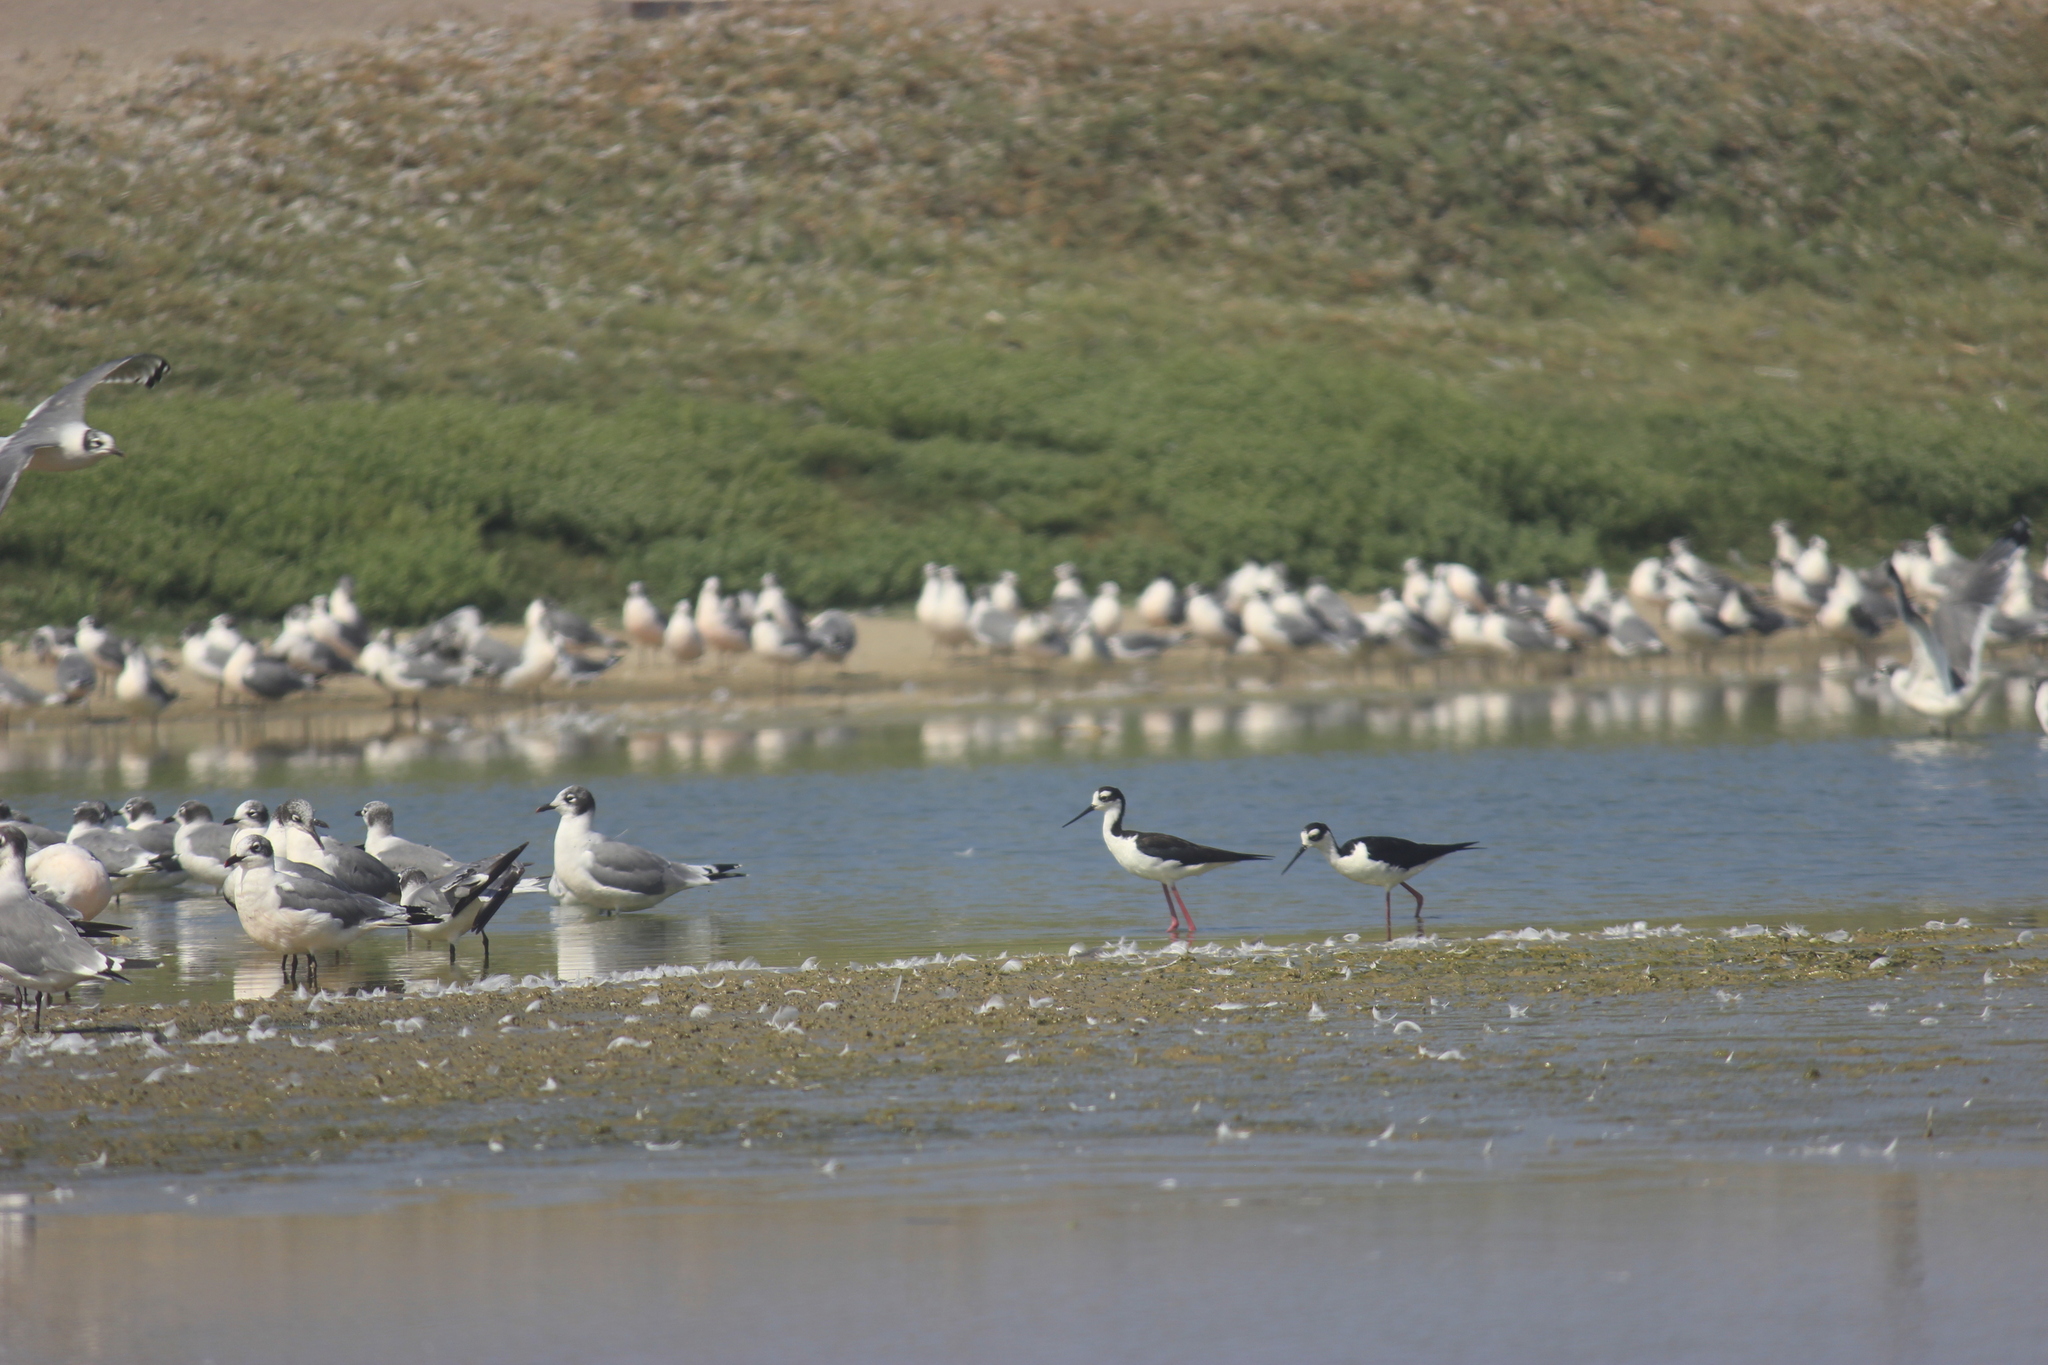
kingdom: Animalia
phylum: Chordata
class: Aves
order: Charadriiformes
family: Recurvirostridae
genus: Himantopus
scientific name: Himantopus mexicanus
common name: Black-necked stilt
